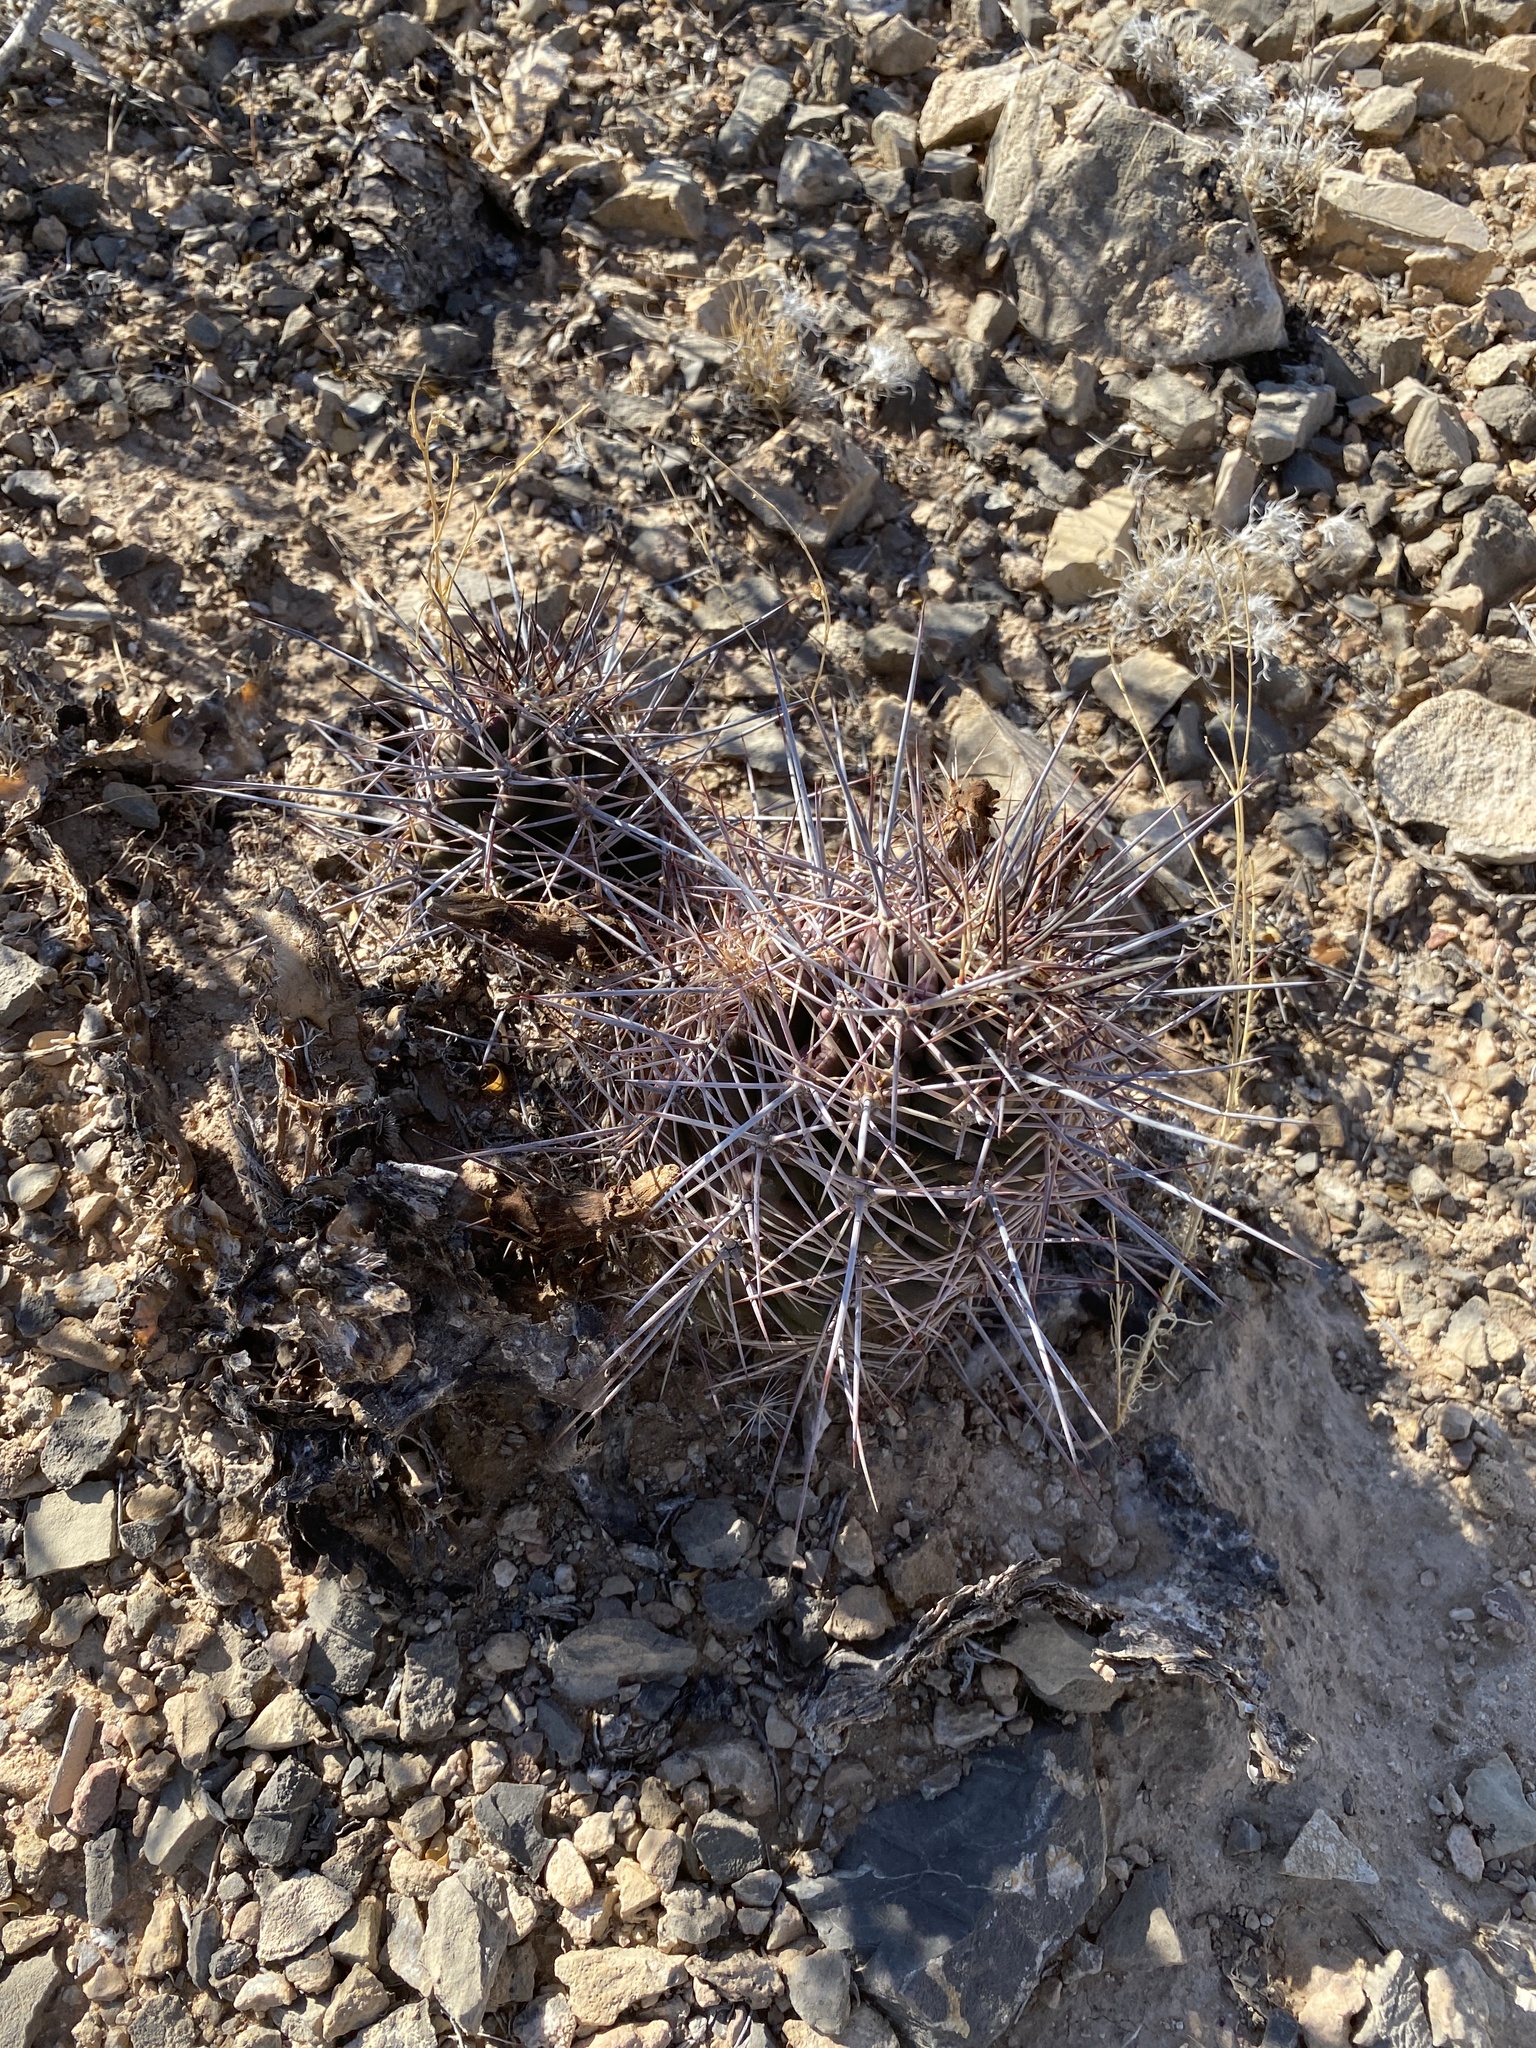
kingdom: Plantae
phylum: Tracheophyta
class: Magnoliopsida
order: Caryophyllales
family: Cactaceae
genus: Echinocereus
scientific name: Echinocereus coccineus
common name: Scarlet hedgehog cactus
